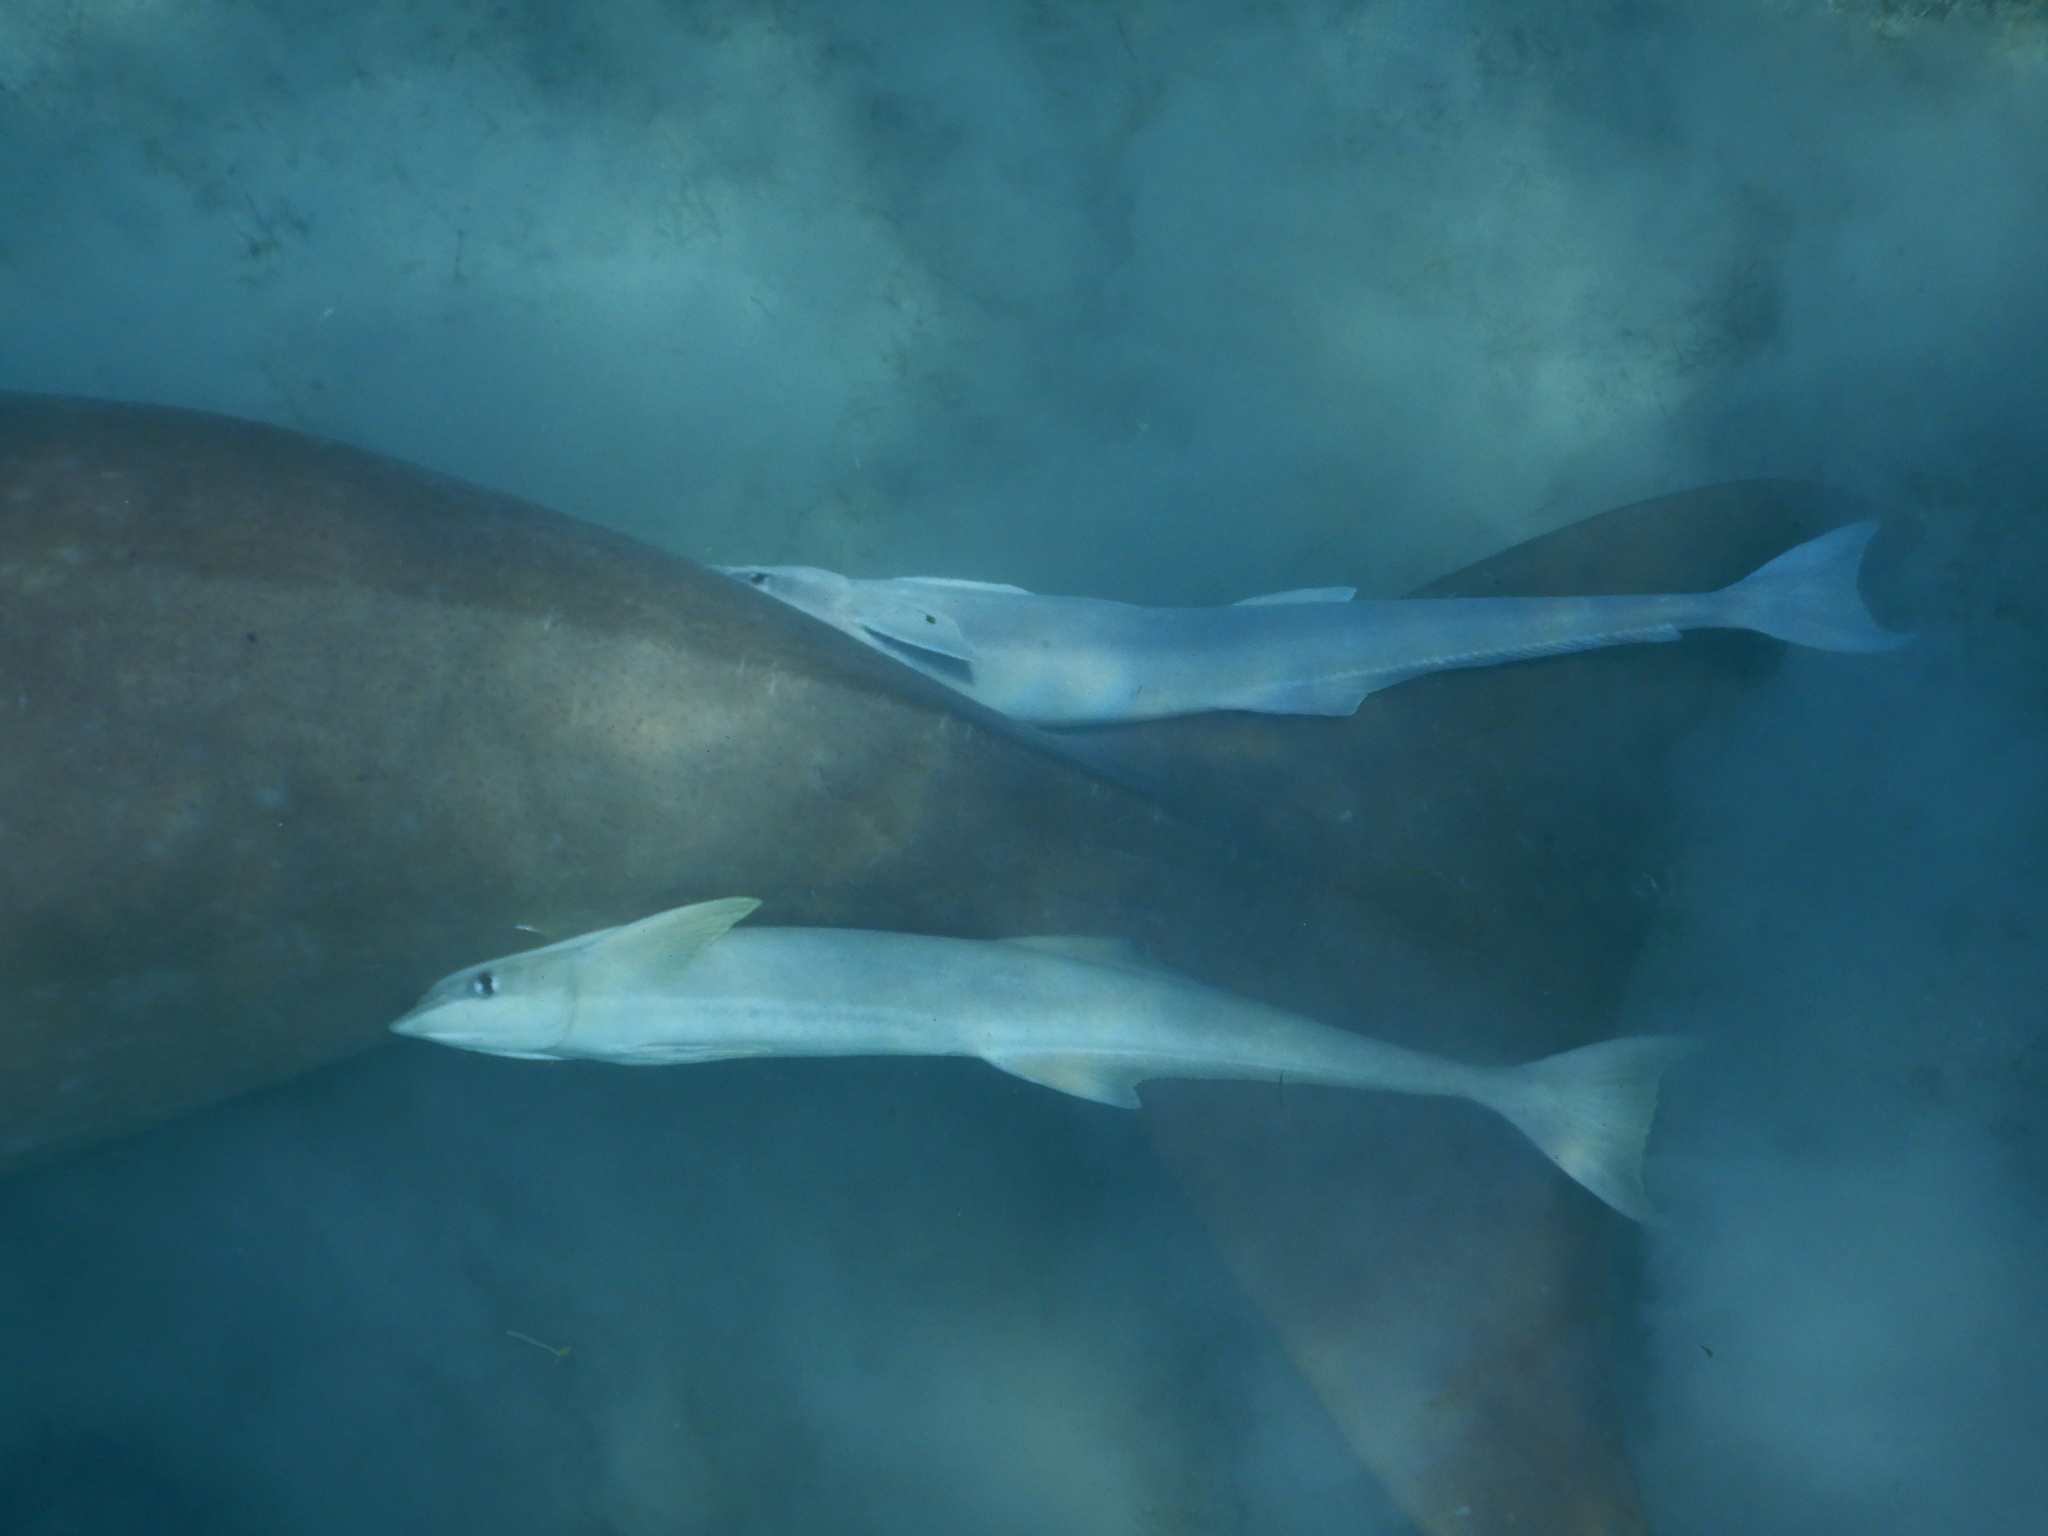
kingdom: Animalia
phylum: Chordata
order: Perciformes
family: Echeneidae
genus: Echeneis
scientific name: Echeneis naucrates
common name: Sharksucker
